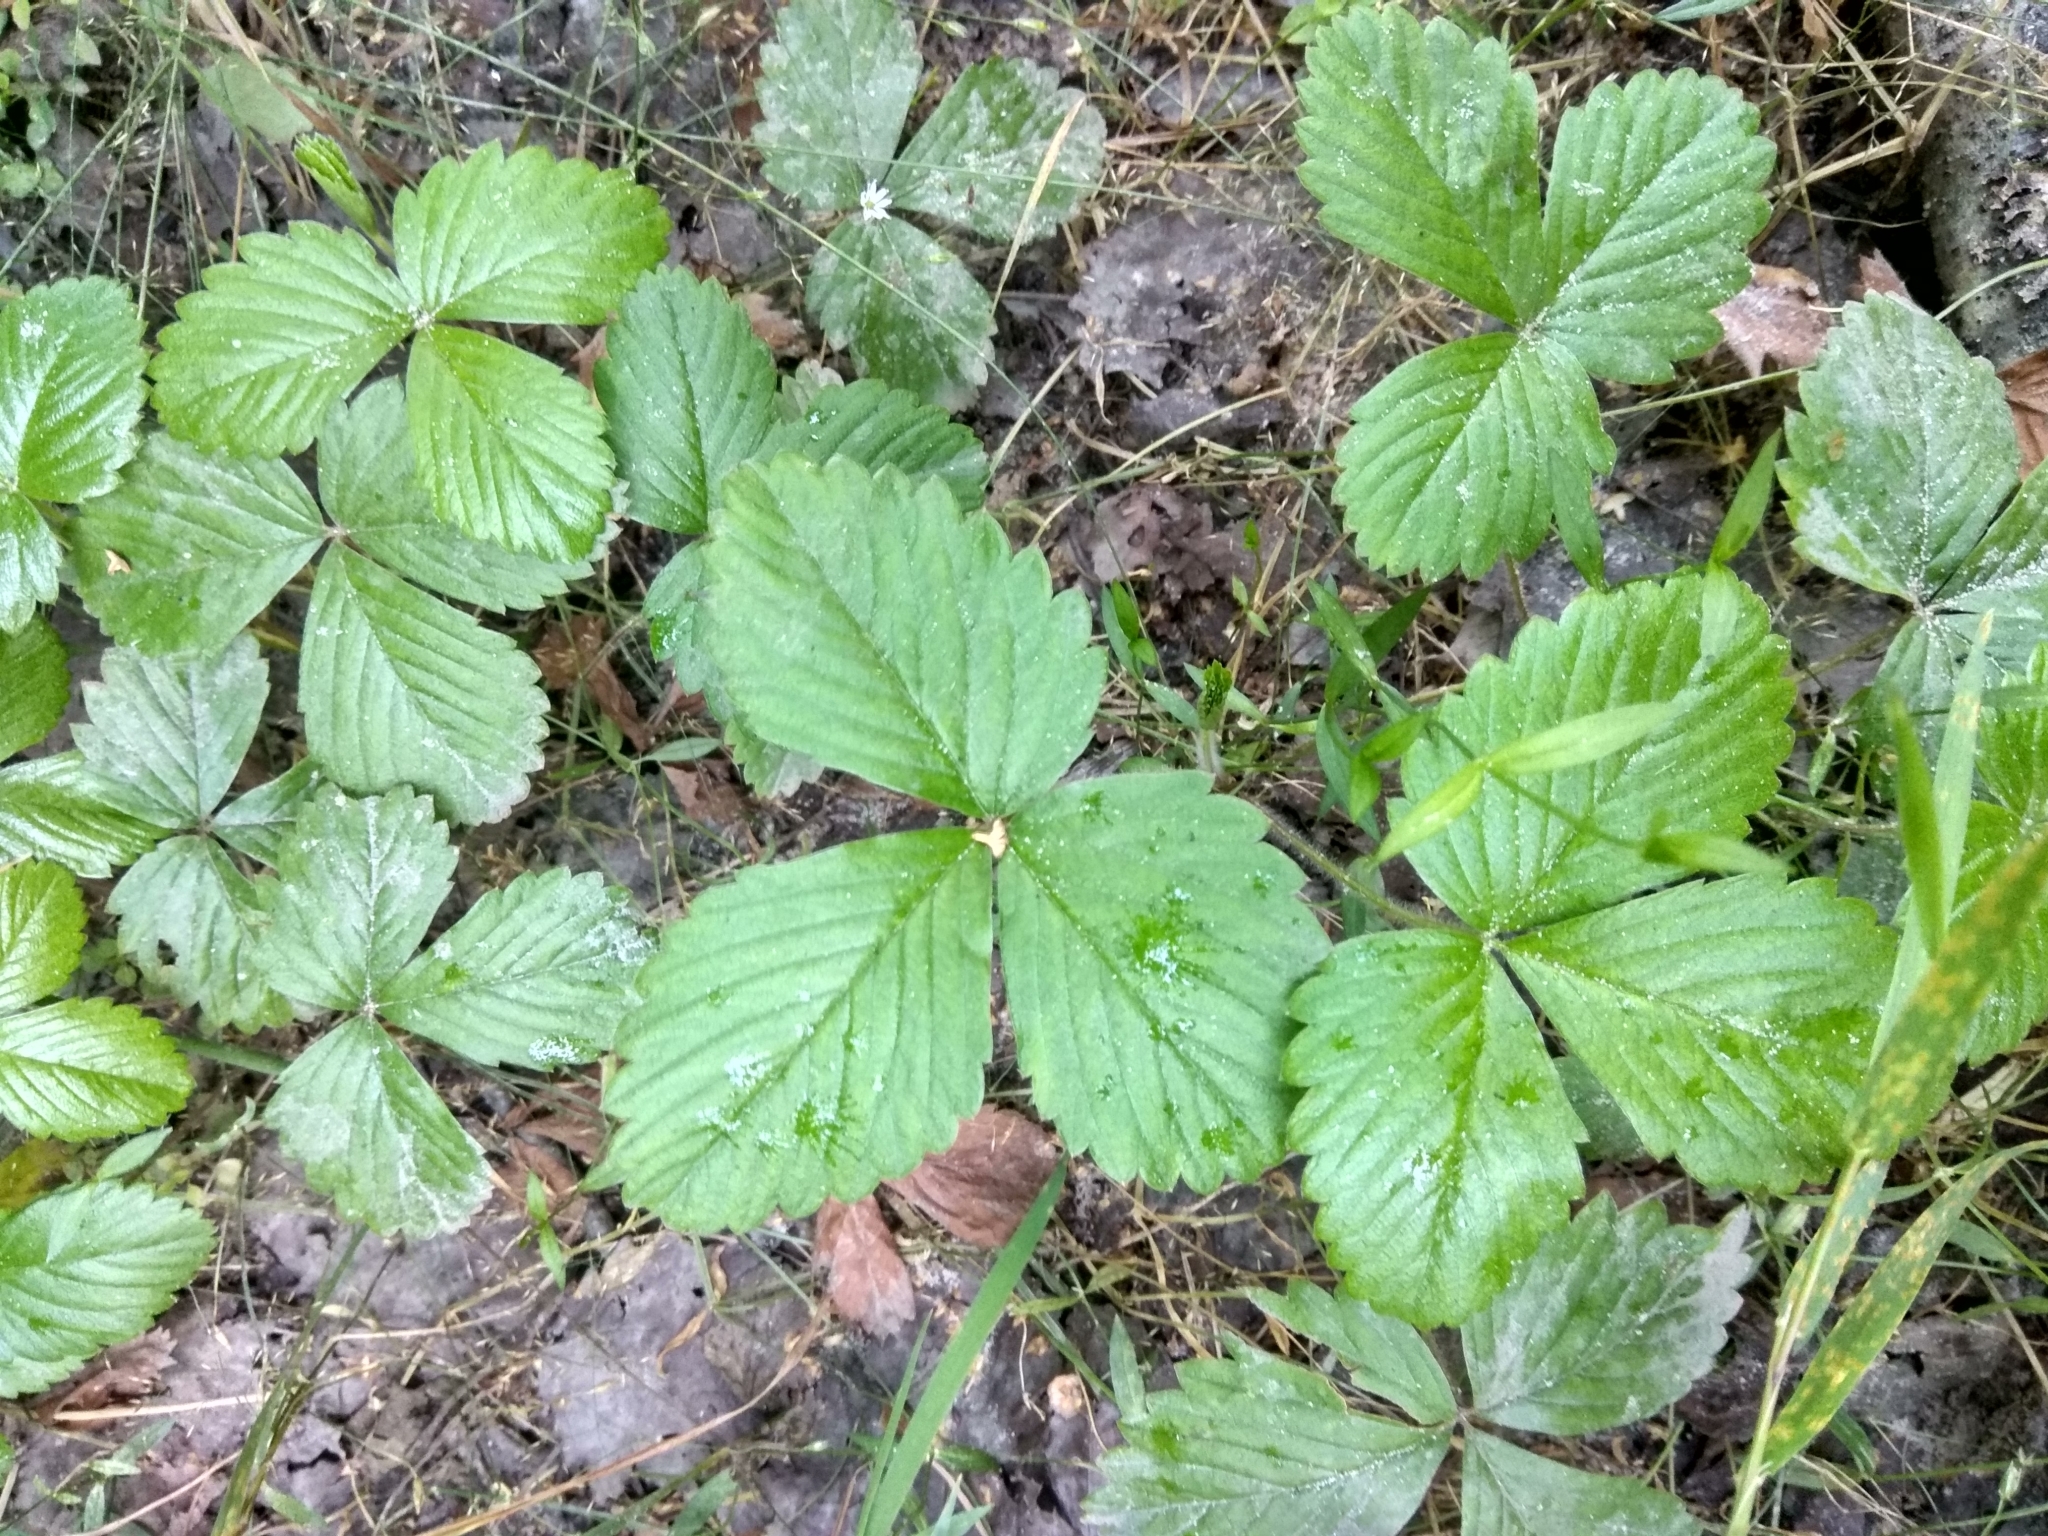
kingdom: Plantae
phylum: Tracheophyta
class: Magnoliopsida
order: Rosales
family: Rosaceae
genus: Fragaria
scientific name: Fragaria vesca
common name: Wild strawberry
